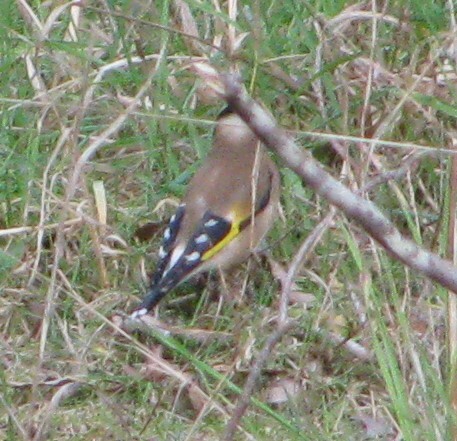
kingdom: Animalia
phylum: Chordata
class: Aves
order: Passeriformes
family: Fringillidae
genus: Carduelis
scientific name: Carduelis carduelis
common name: European goldfinch
